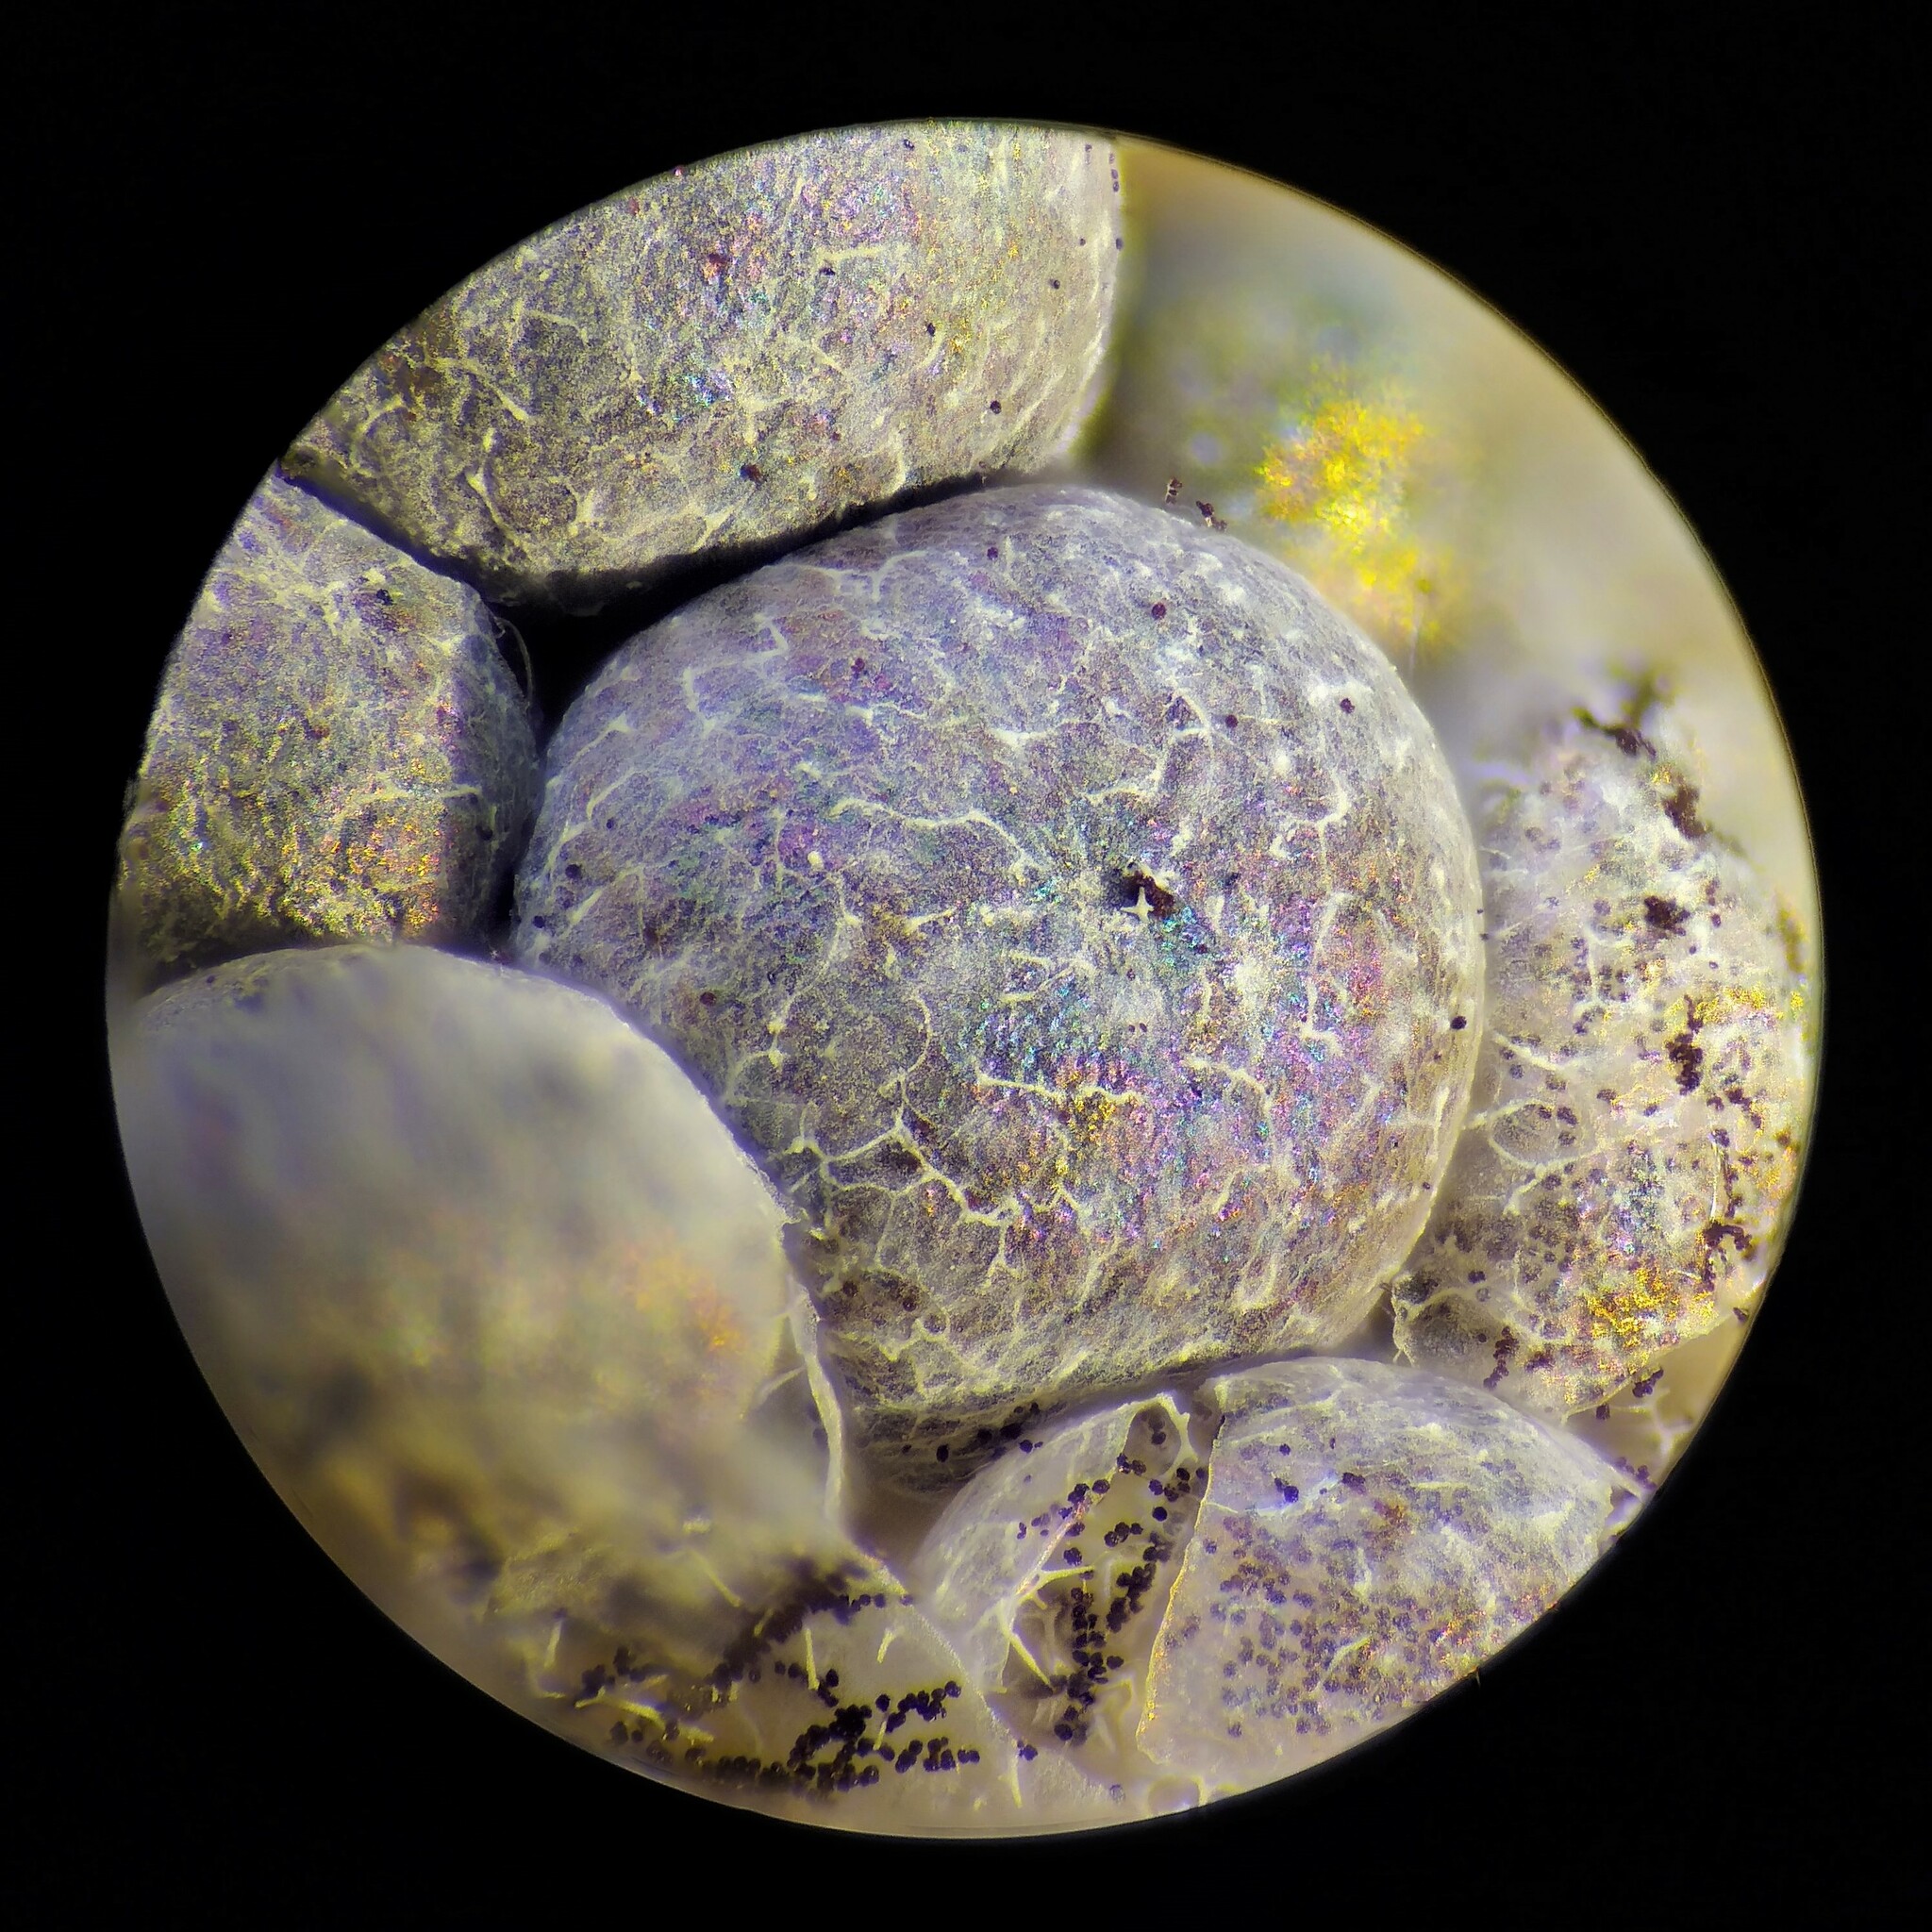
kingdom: Protozoa
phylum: Mycetozoa
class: Myxomycetes
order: Physarales
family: Physaraceae
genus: Badhamia
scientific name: Badhamia foliicola
